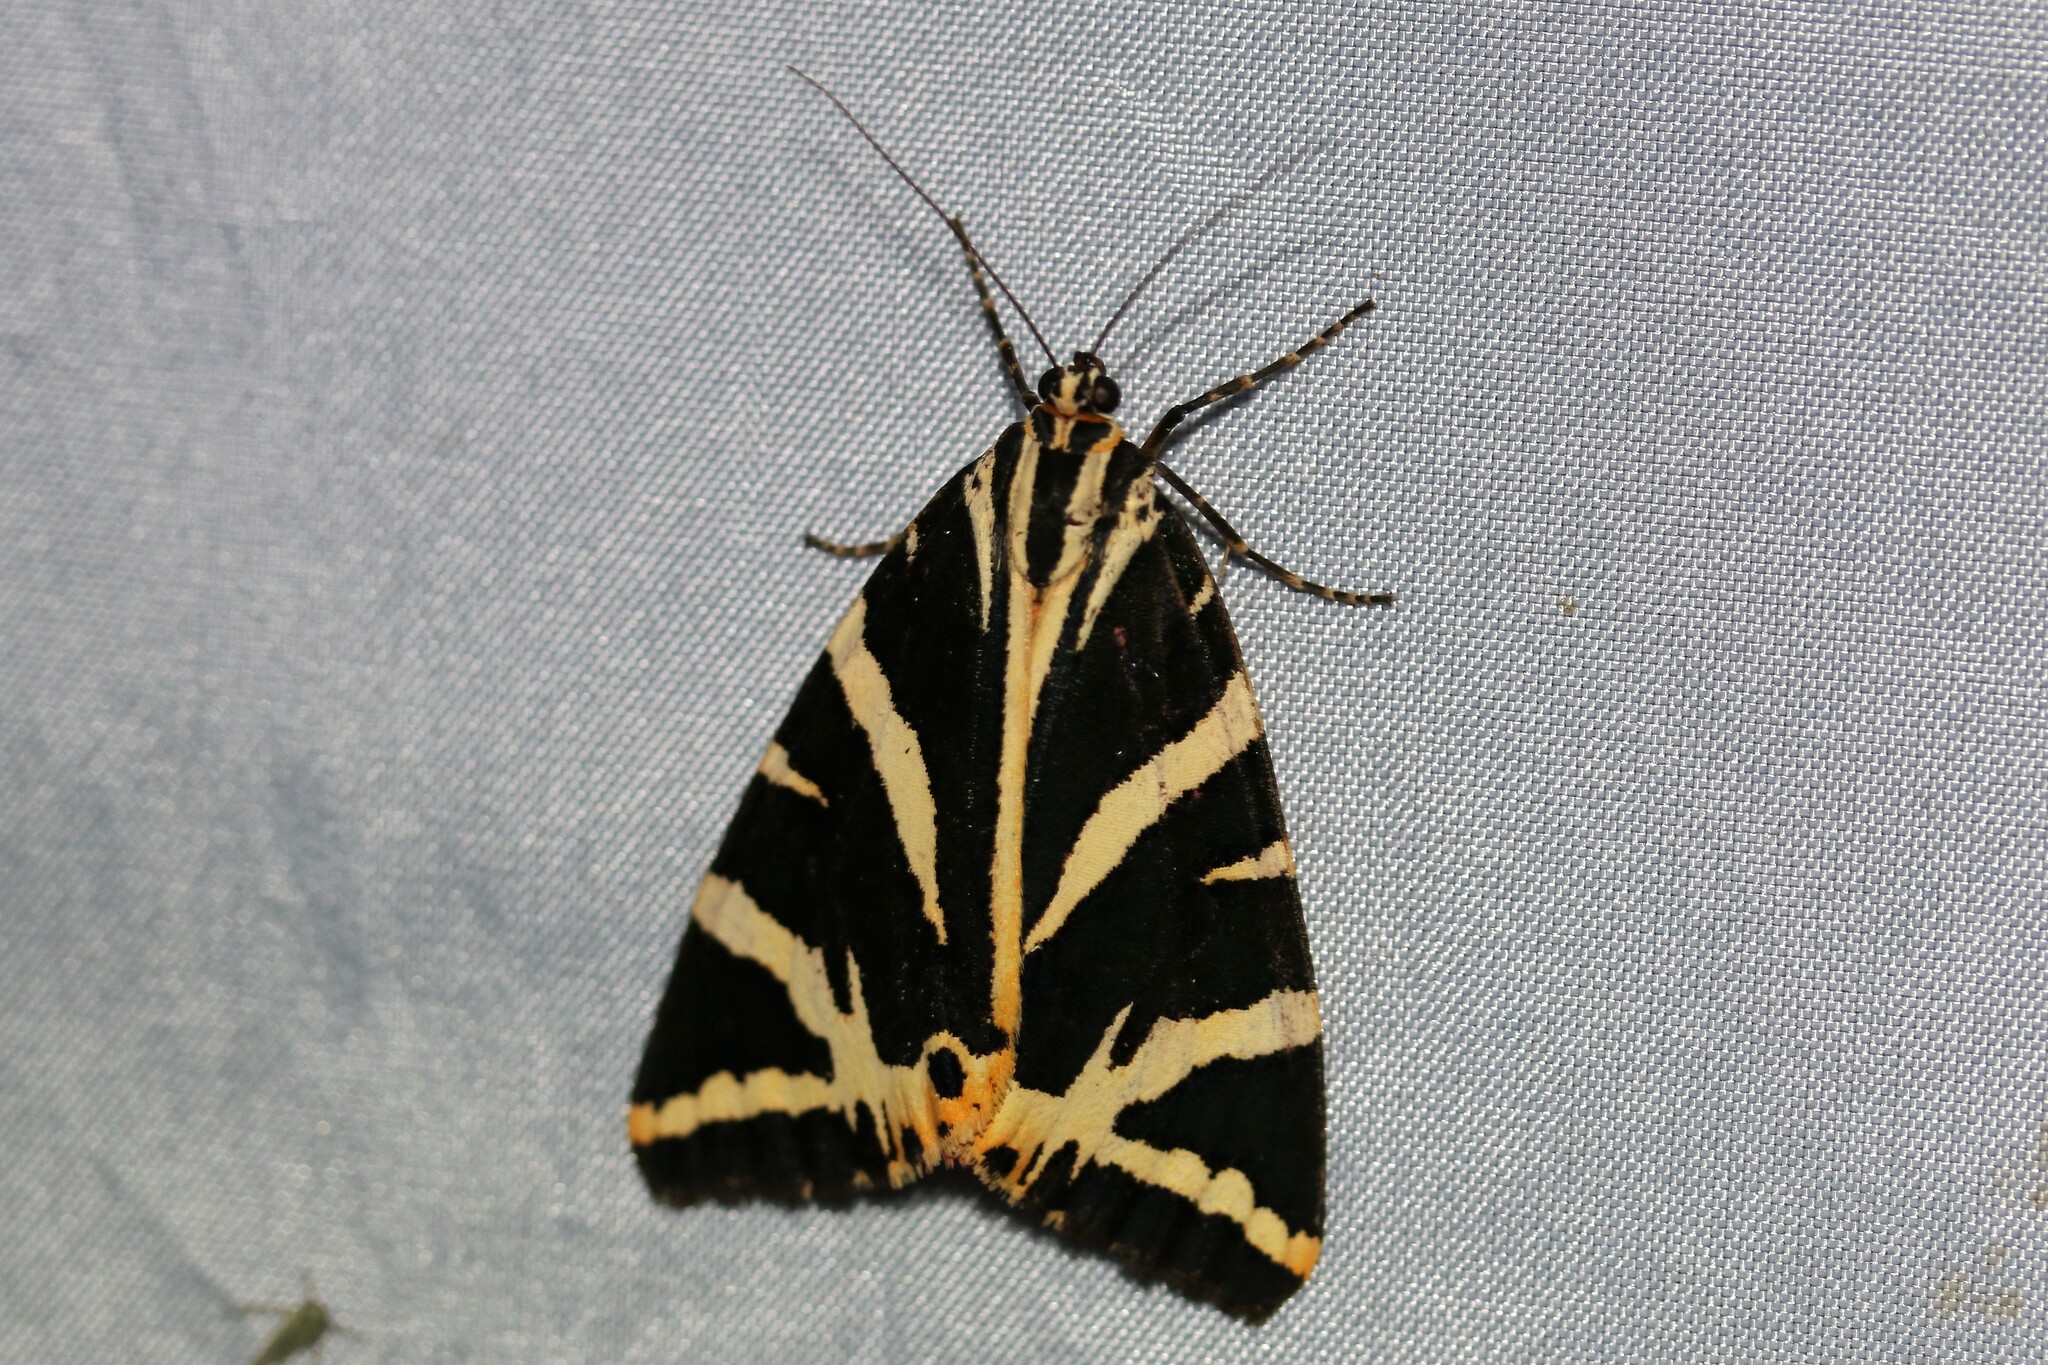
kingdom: Animalia
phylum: Arthropoda
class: Insecta
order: Lepidoptera
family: Erebidae
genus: Euplagia
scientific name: Euplagia quadripunctaria
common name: Jersey tiger
